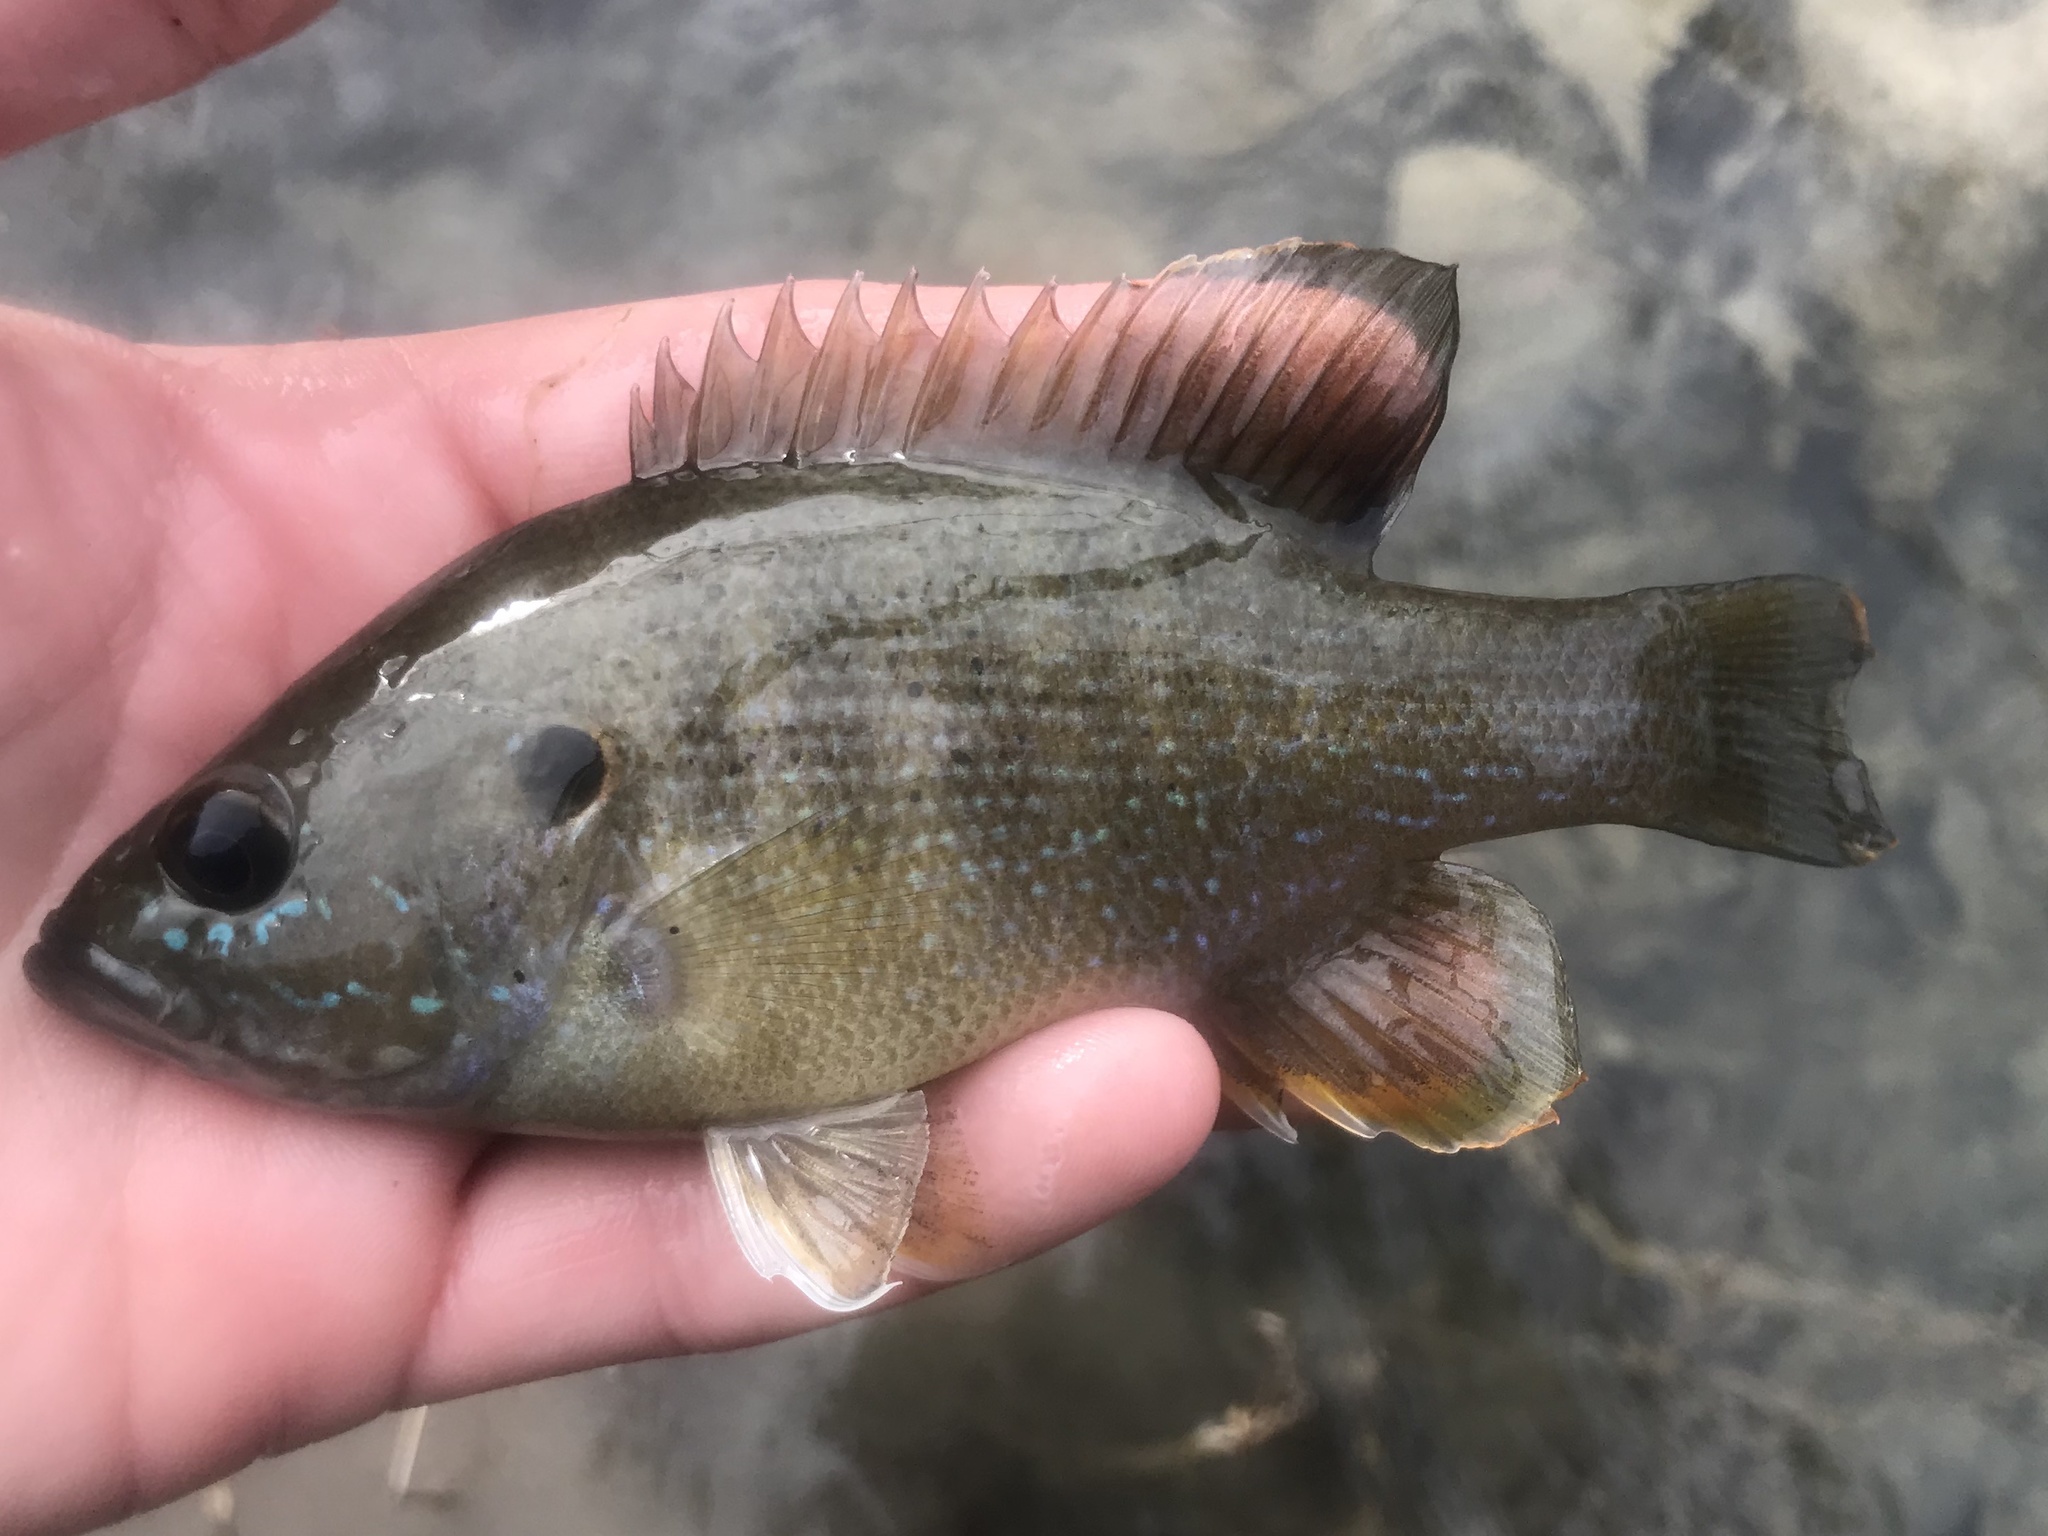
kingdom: Animalia
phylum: Chordata
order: Perciformes
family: Centrarchidae
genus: Lepomis
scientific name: Lepomis cyanellus
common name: Green sunfish
